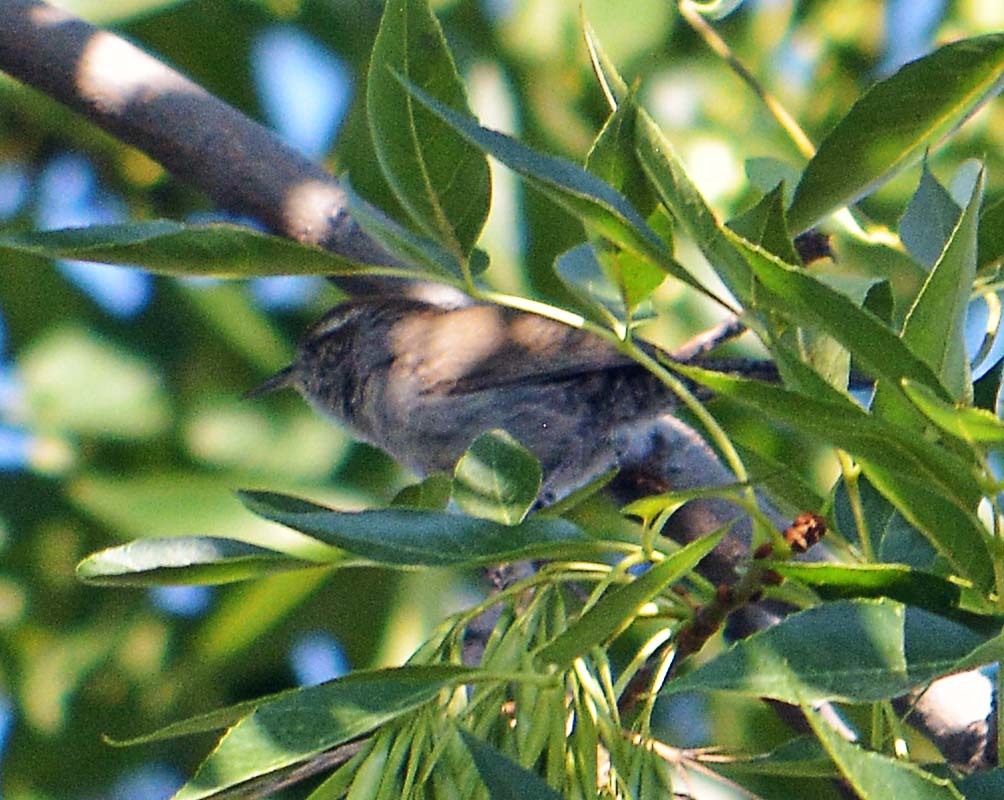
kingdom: Animalia
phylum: Chordata
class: Aves
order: Passeriformes
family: Troglodytidae
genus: Thryomanes
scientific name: Thryomanes bewickii
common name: Bewick's wren
